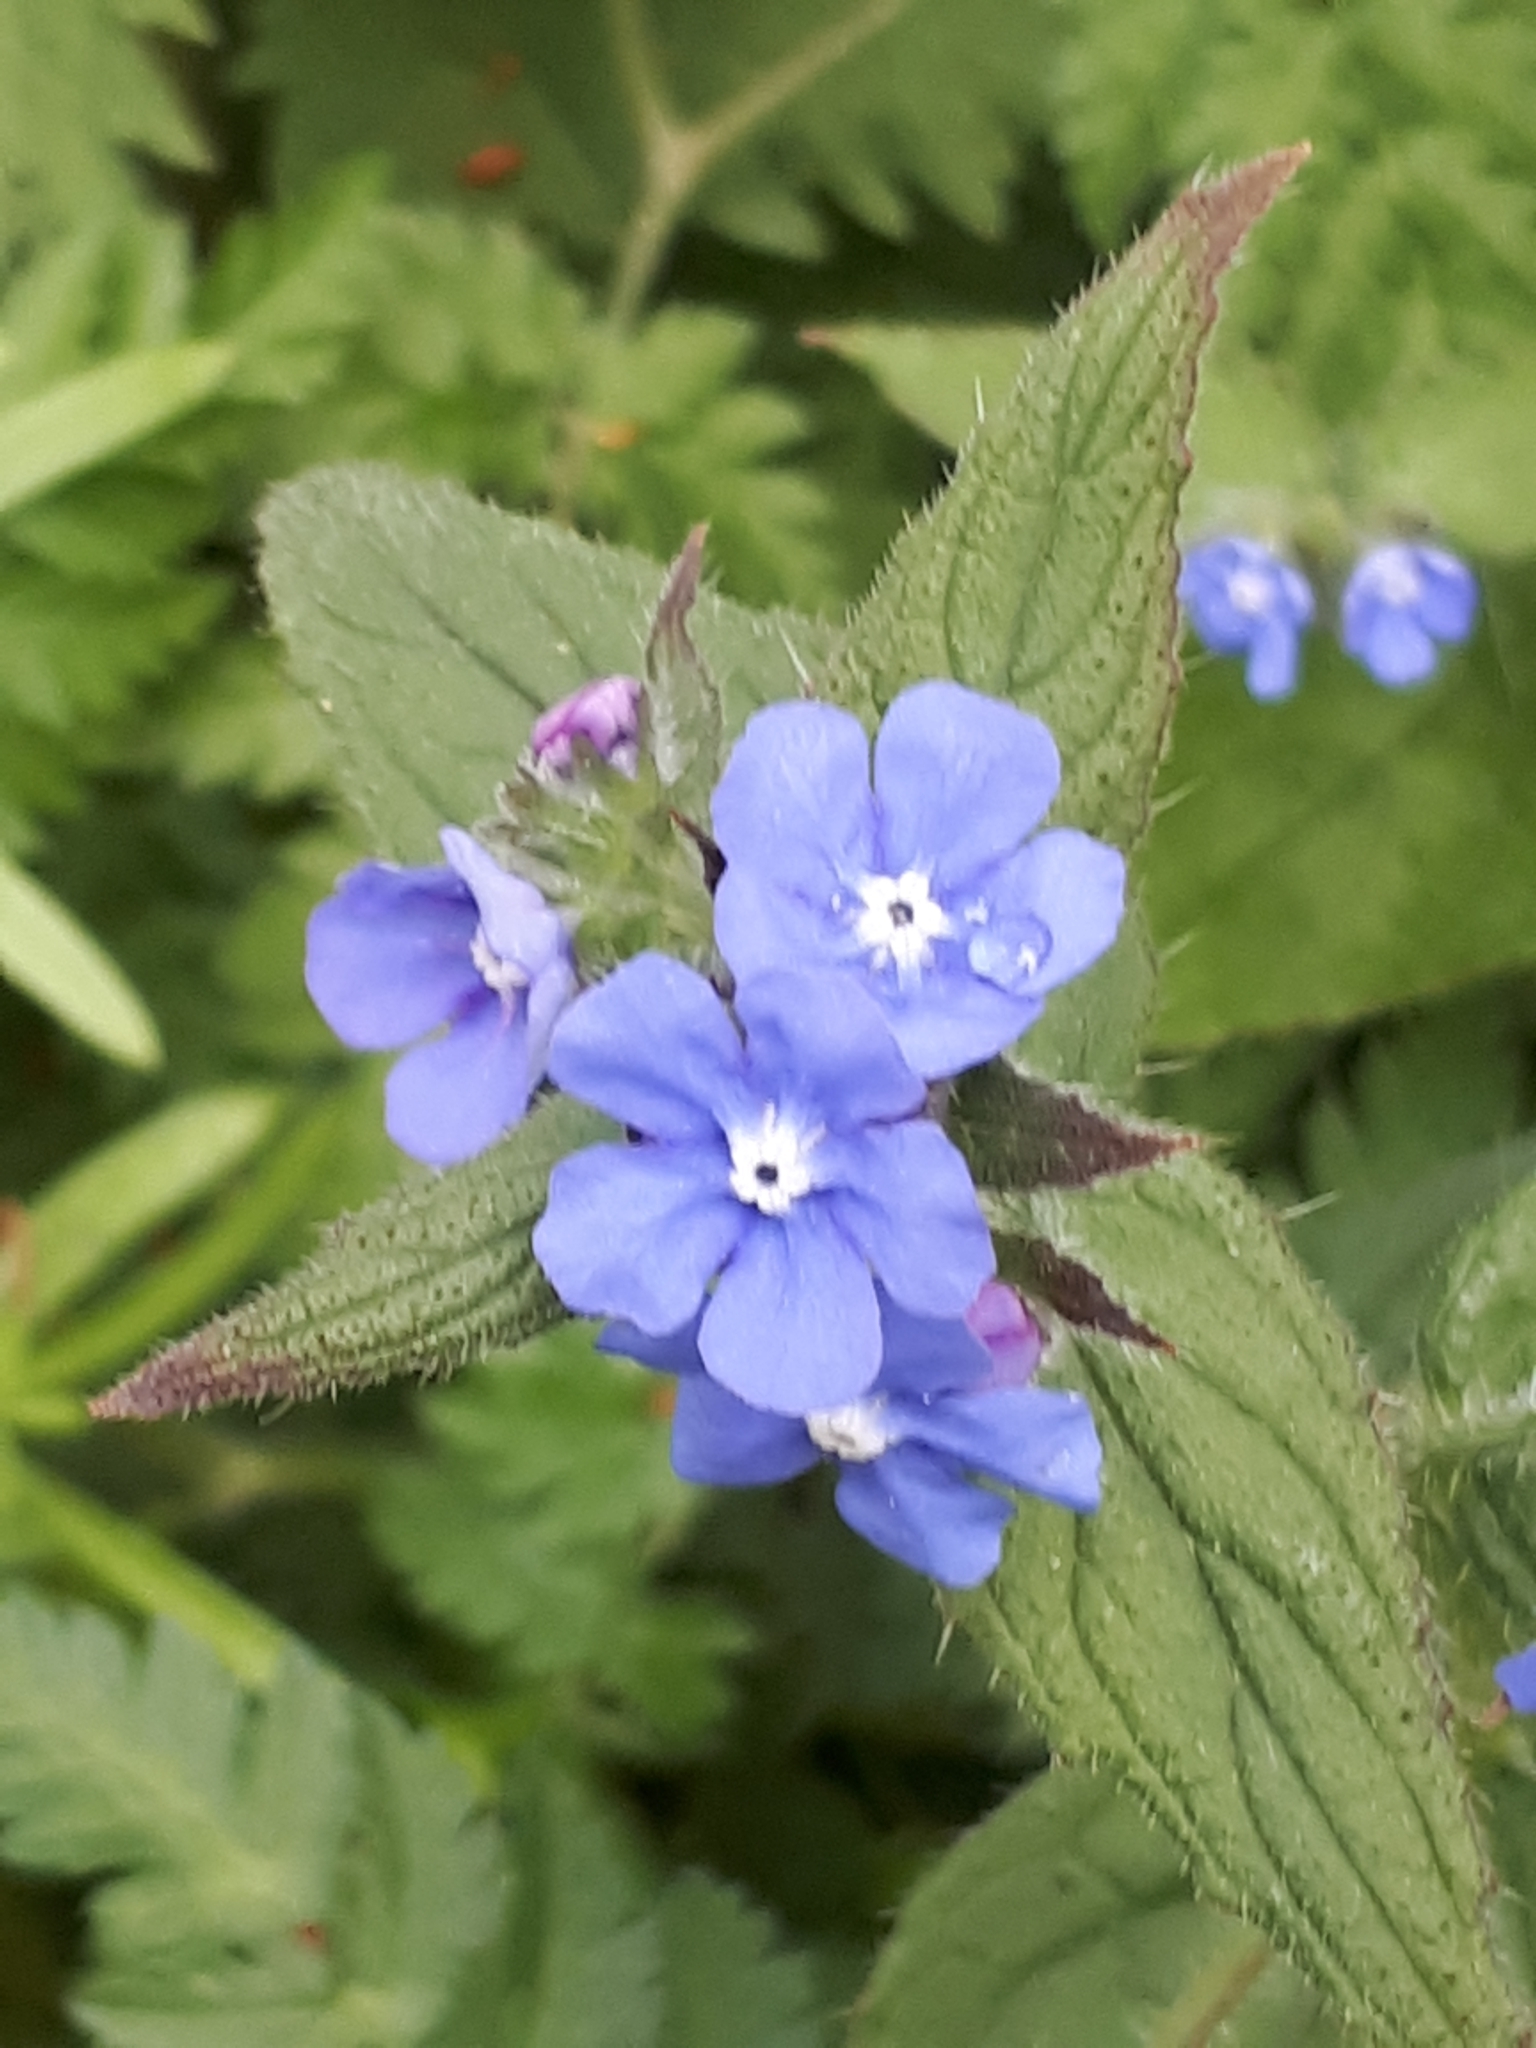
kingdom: Plantae
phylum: Tracheophyta
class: Magnoliopsida
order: Boraginales
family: Boraginaceae
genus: Pentaglottis
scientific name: Pentaglottis sempervirens
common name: Green alkanet
